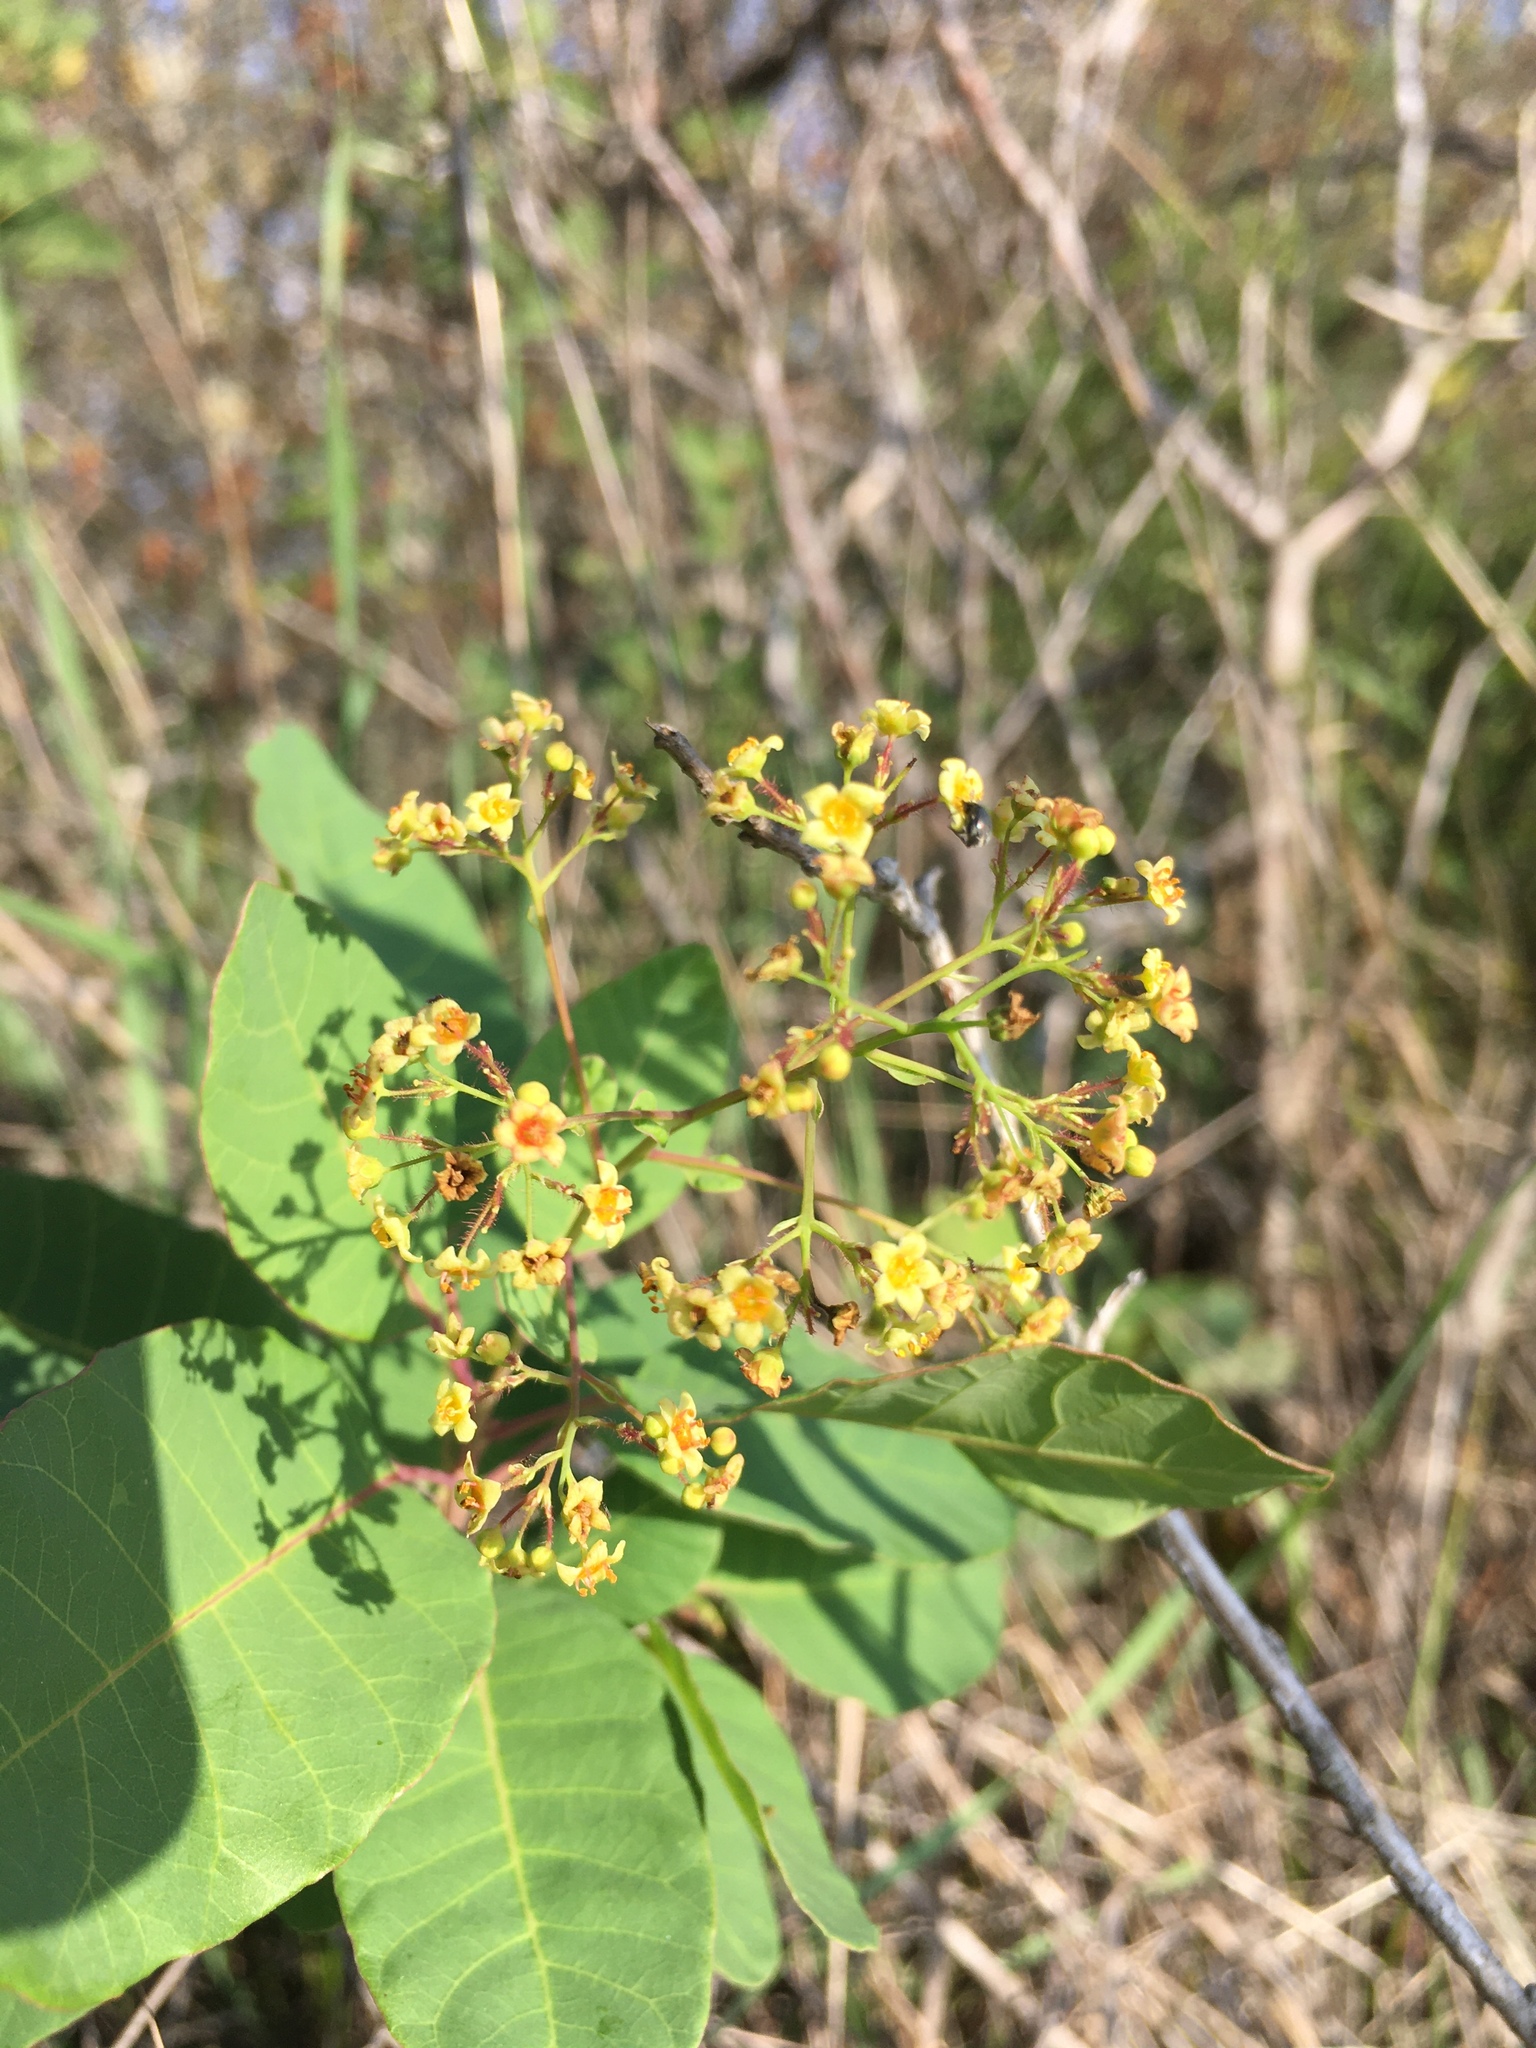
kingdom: Plantae
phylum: Tracheophyta
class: Magnoliopsida
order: Sapindales
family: Anacardiaceae
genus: Cotinus
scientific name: Cotinus coggygria
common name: Smoke-tree
